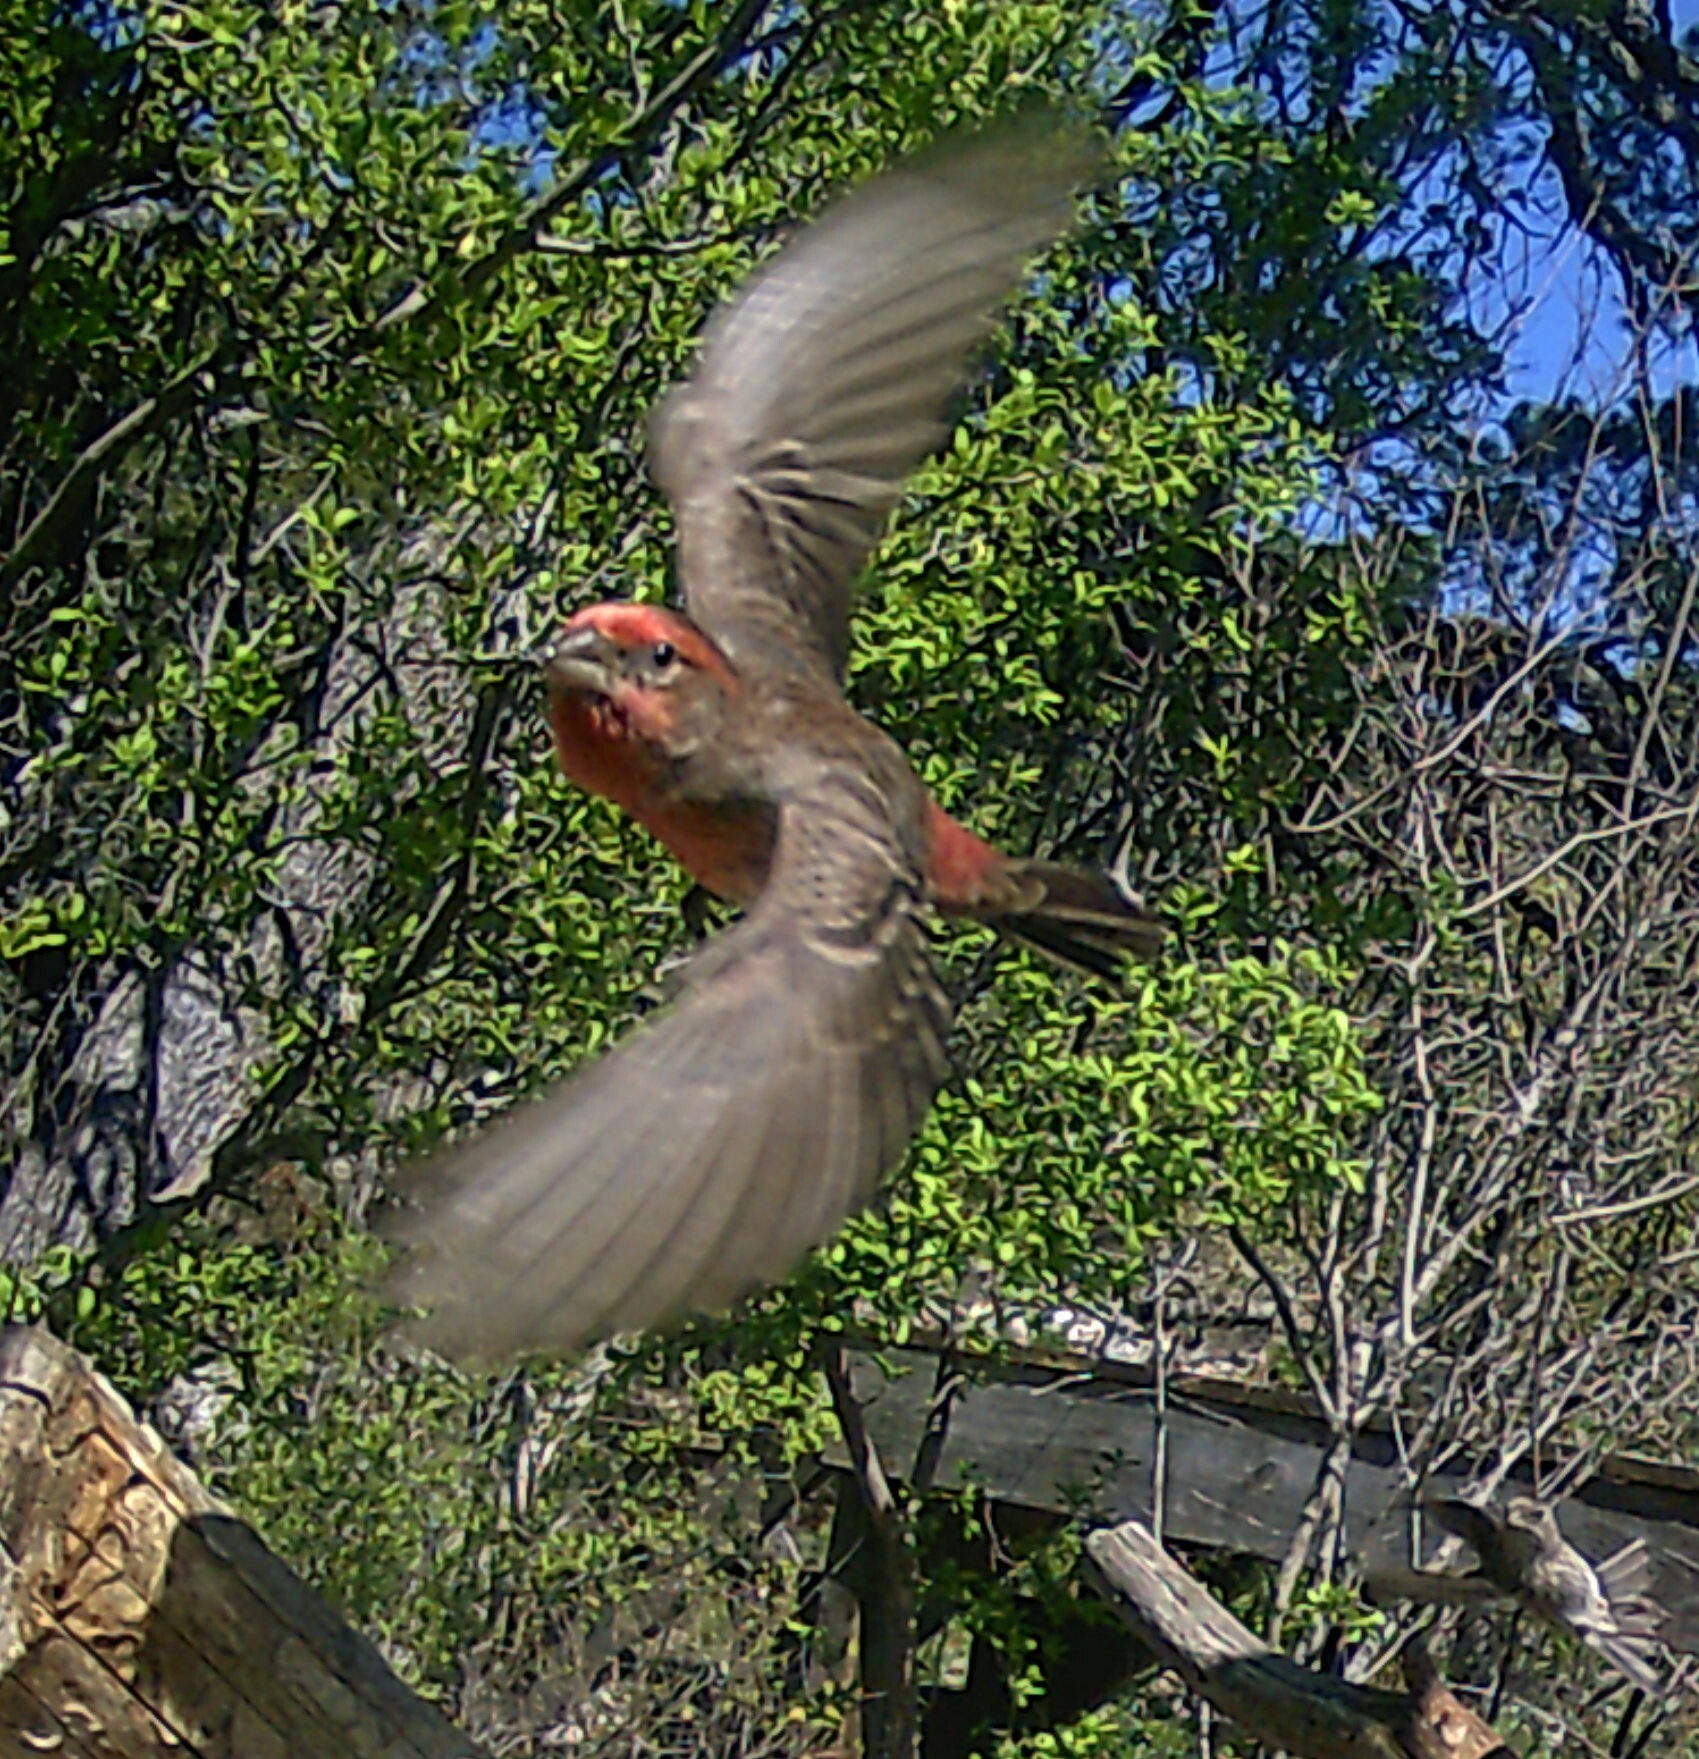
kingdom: Animalia
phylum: Chordata
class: Aves
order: Passeriformes
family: Fringillidae
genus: Haemorhous
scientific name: Haemorhous mexicanus
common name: House finch
